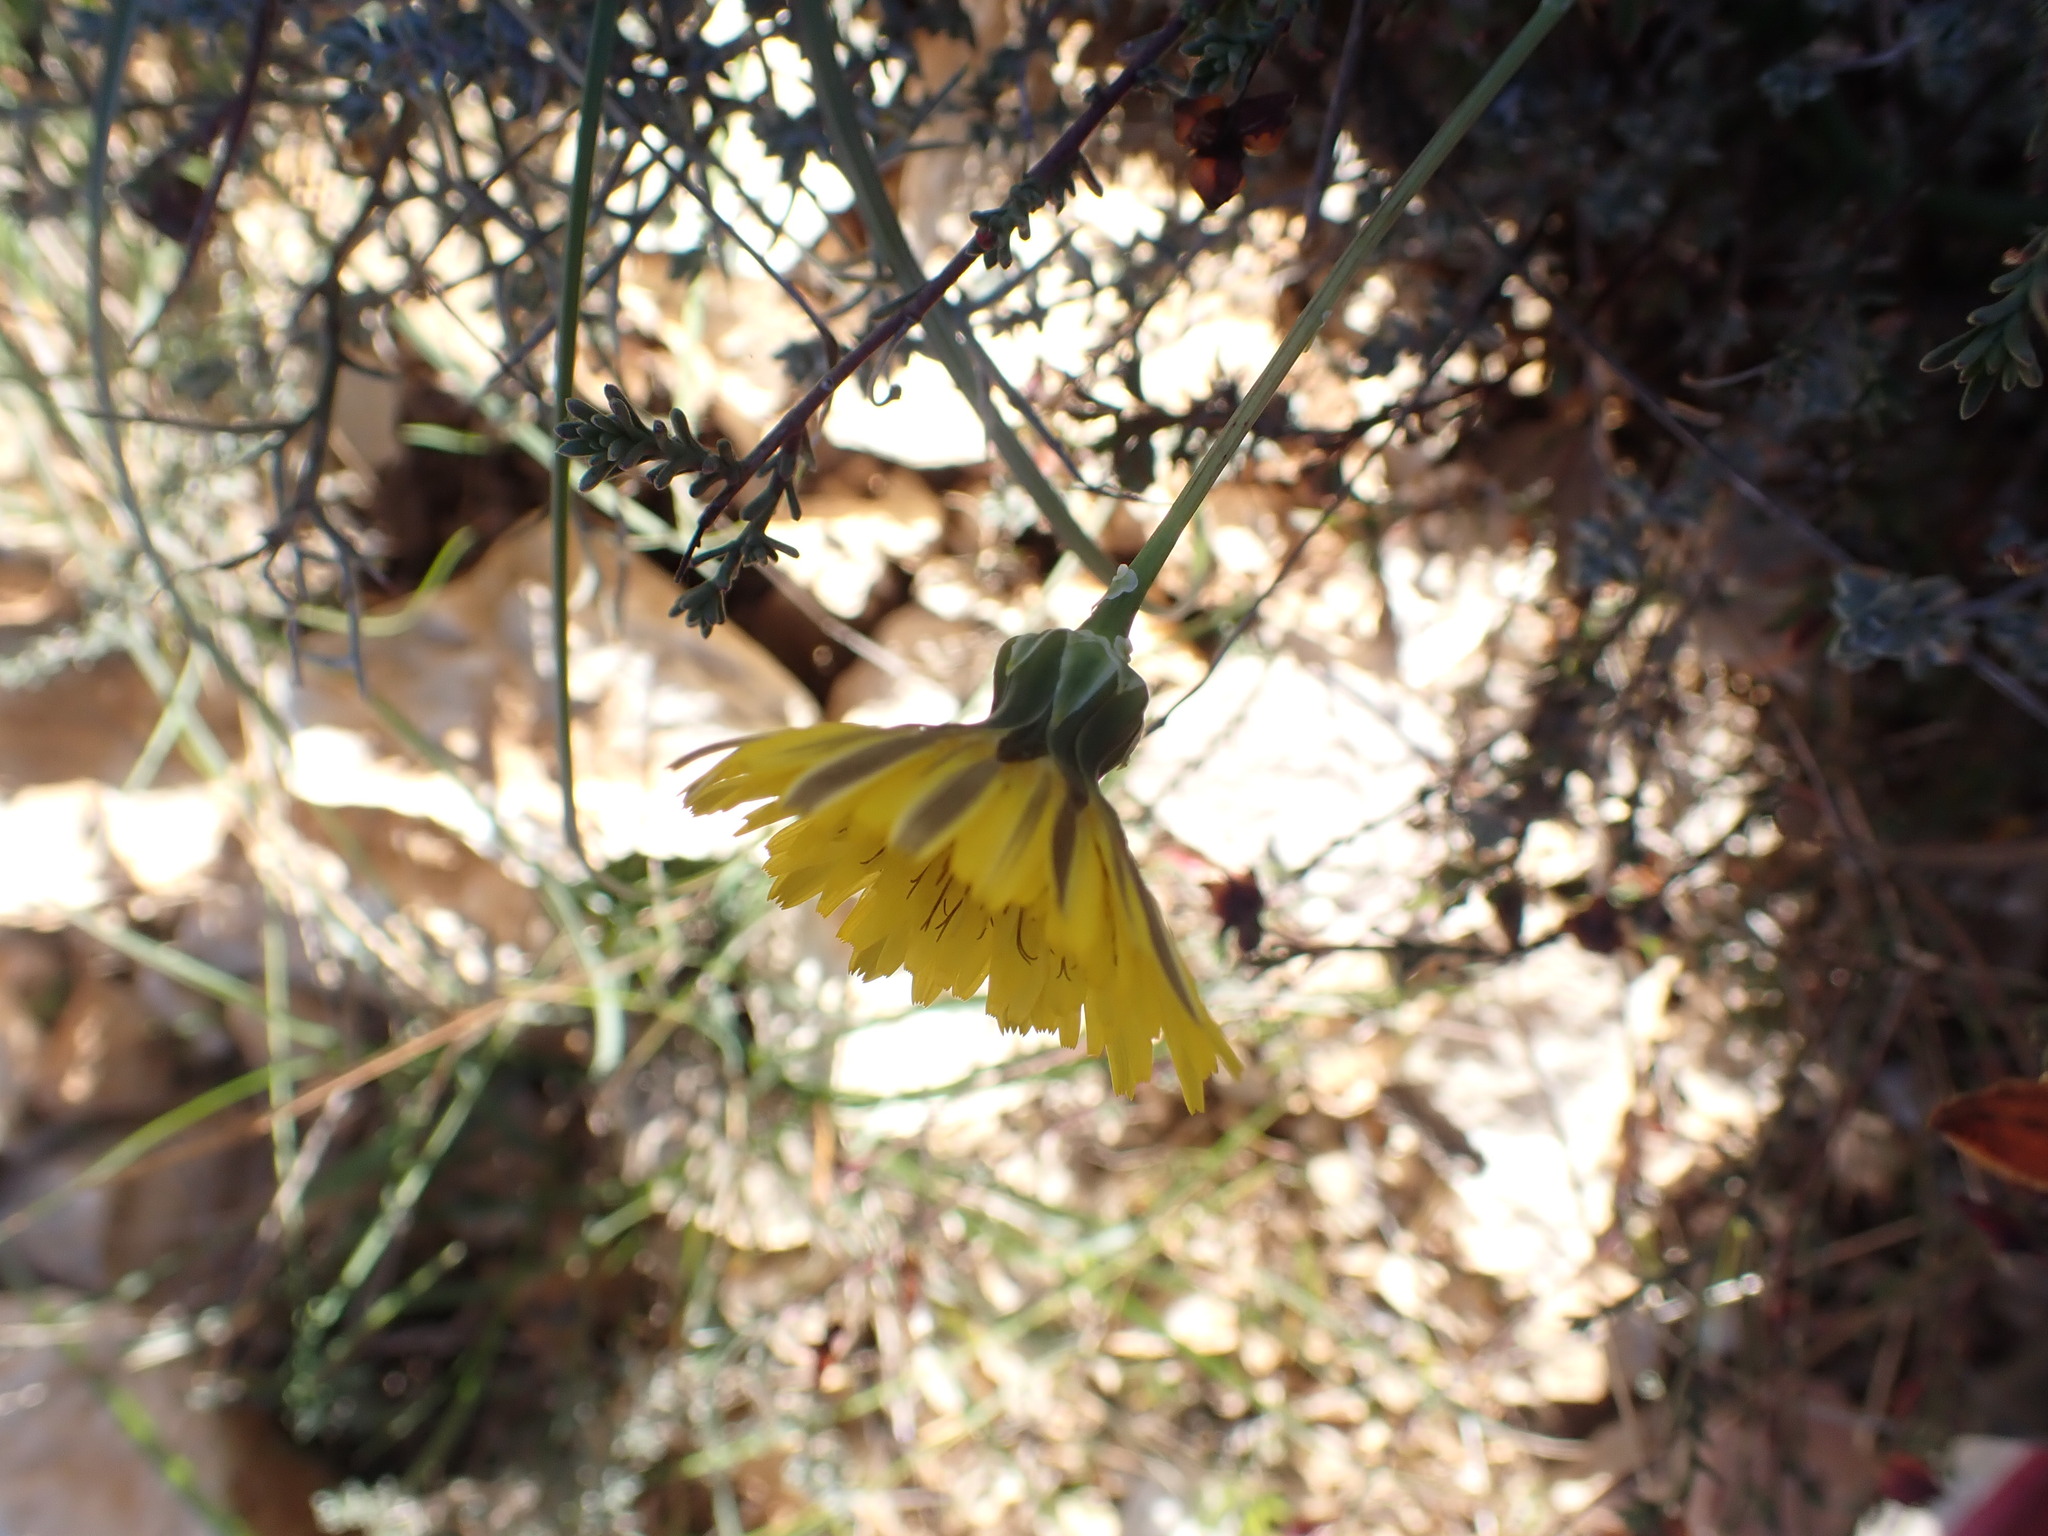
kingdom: Plantae
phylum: Tracheophyta
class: Magnoliopsida
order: Asterales
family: Asteraceae
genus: Reichardia
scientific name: Reichardia picroides
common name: Common brighteyes
